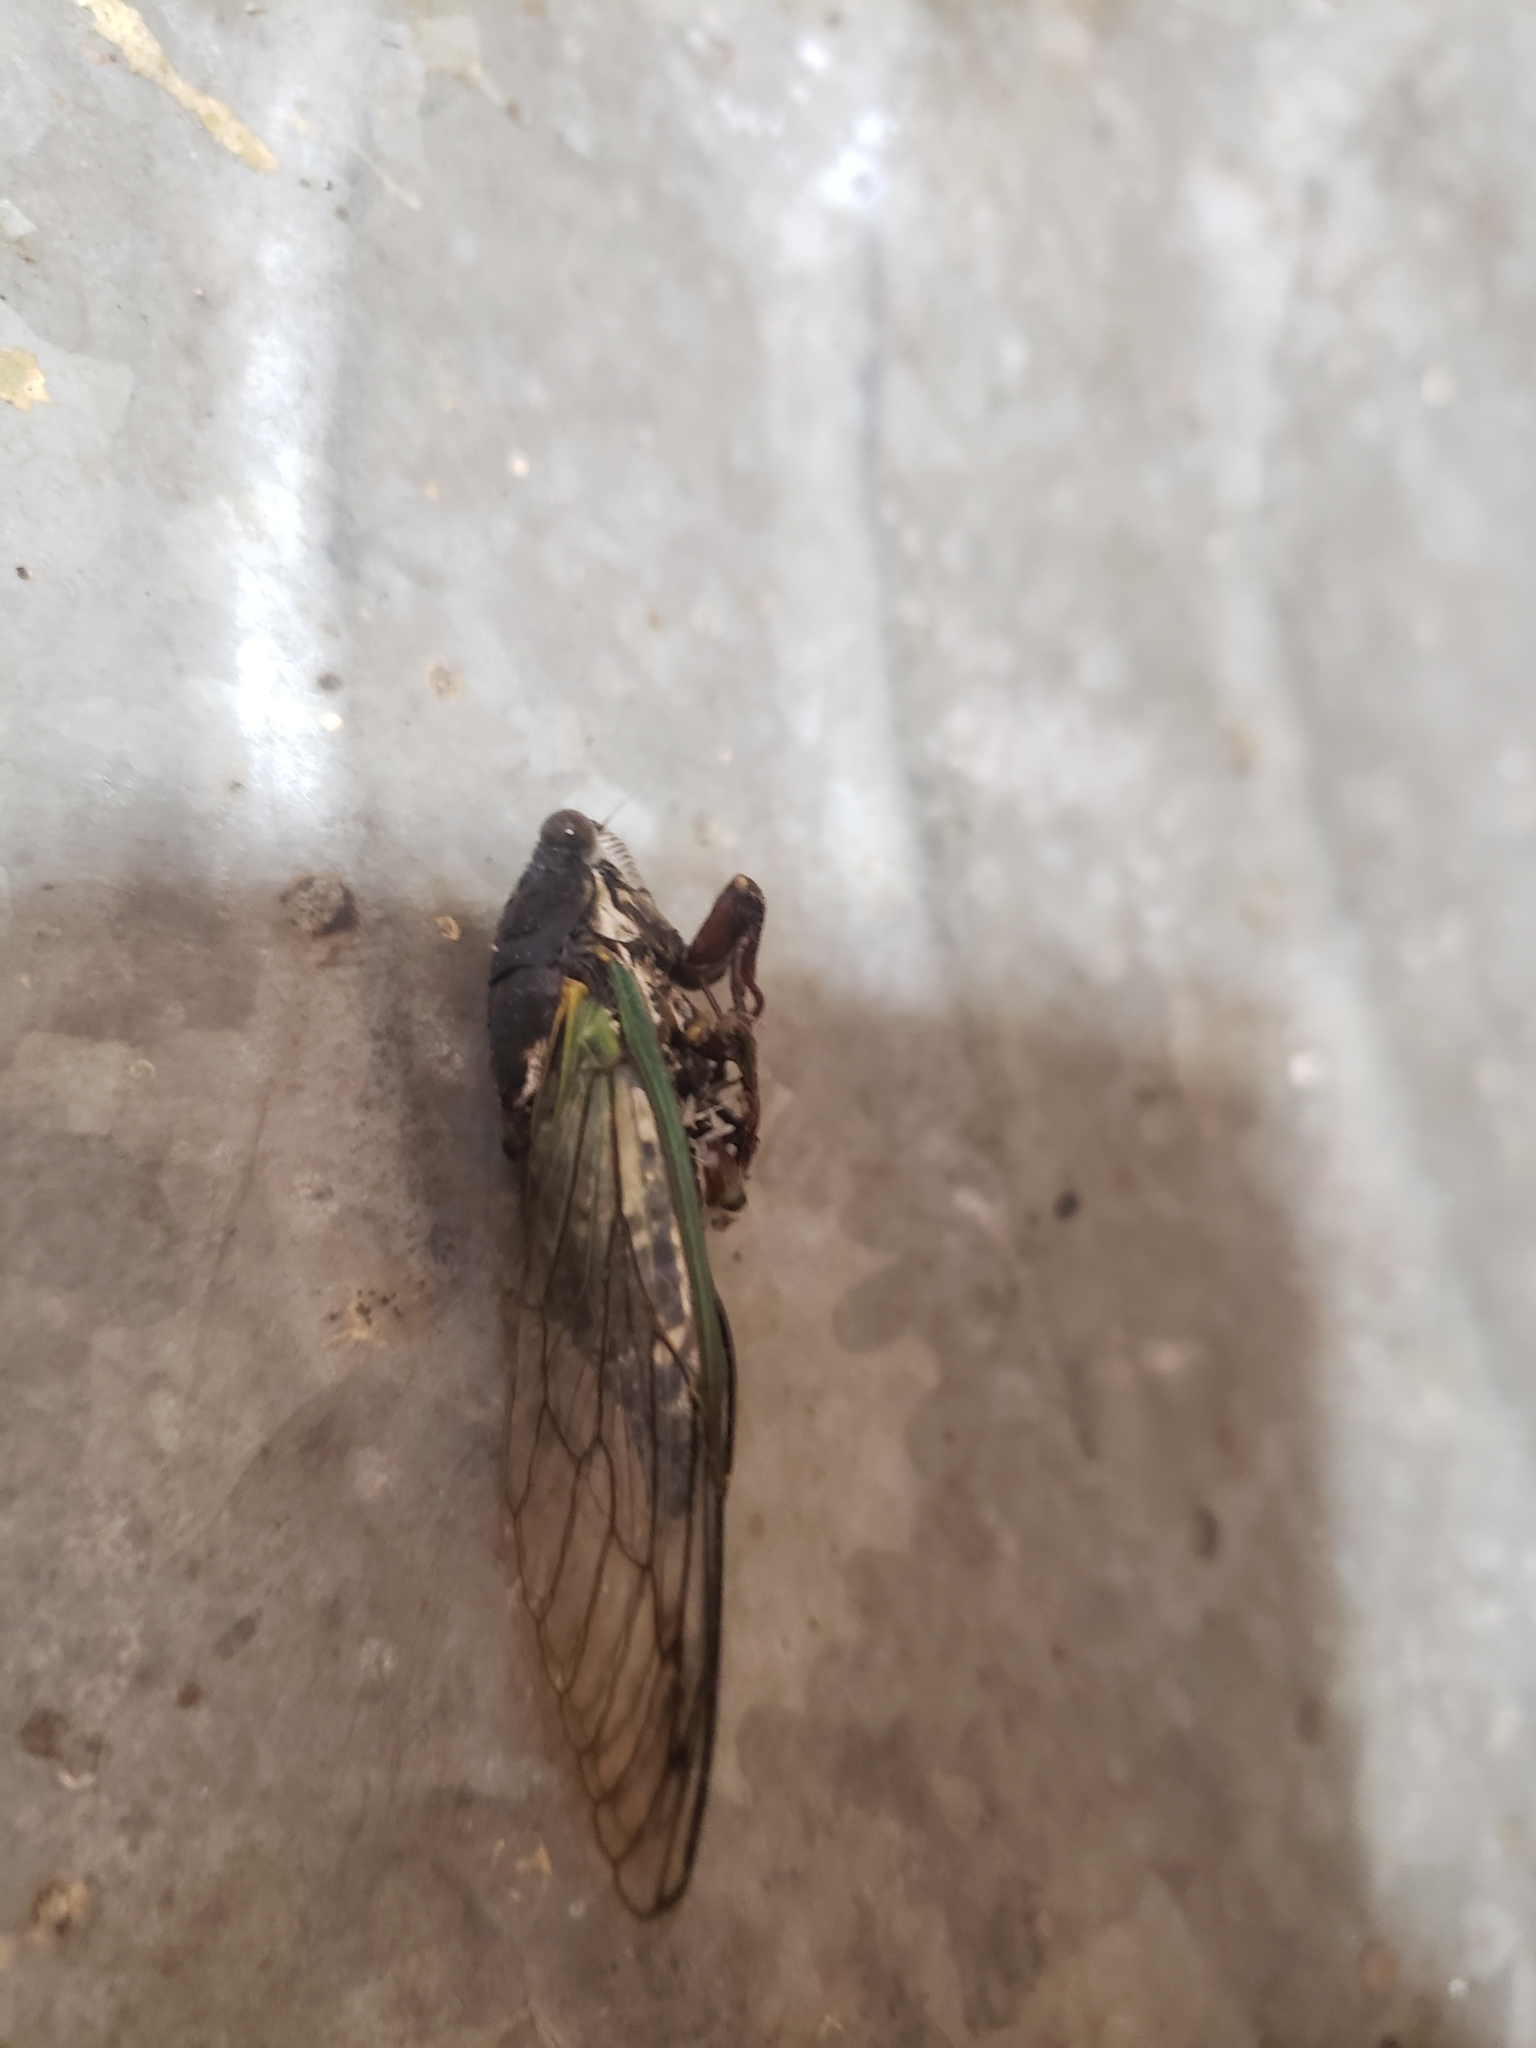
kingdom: Animalia
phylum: Arthropoda
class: Insecta
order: Hemiptera
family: Cicadidae
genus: Neotibicen
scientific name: Neotibicen lyricen
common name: Lyric cicada
